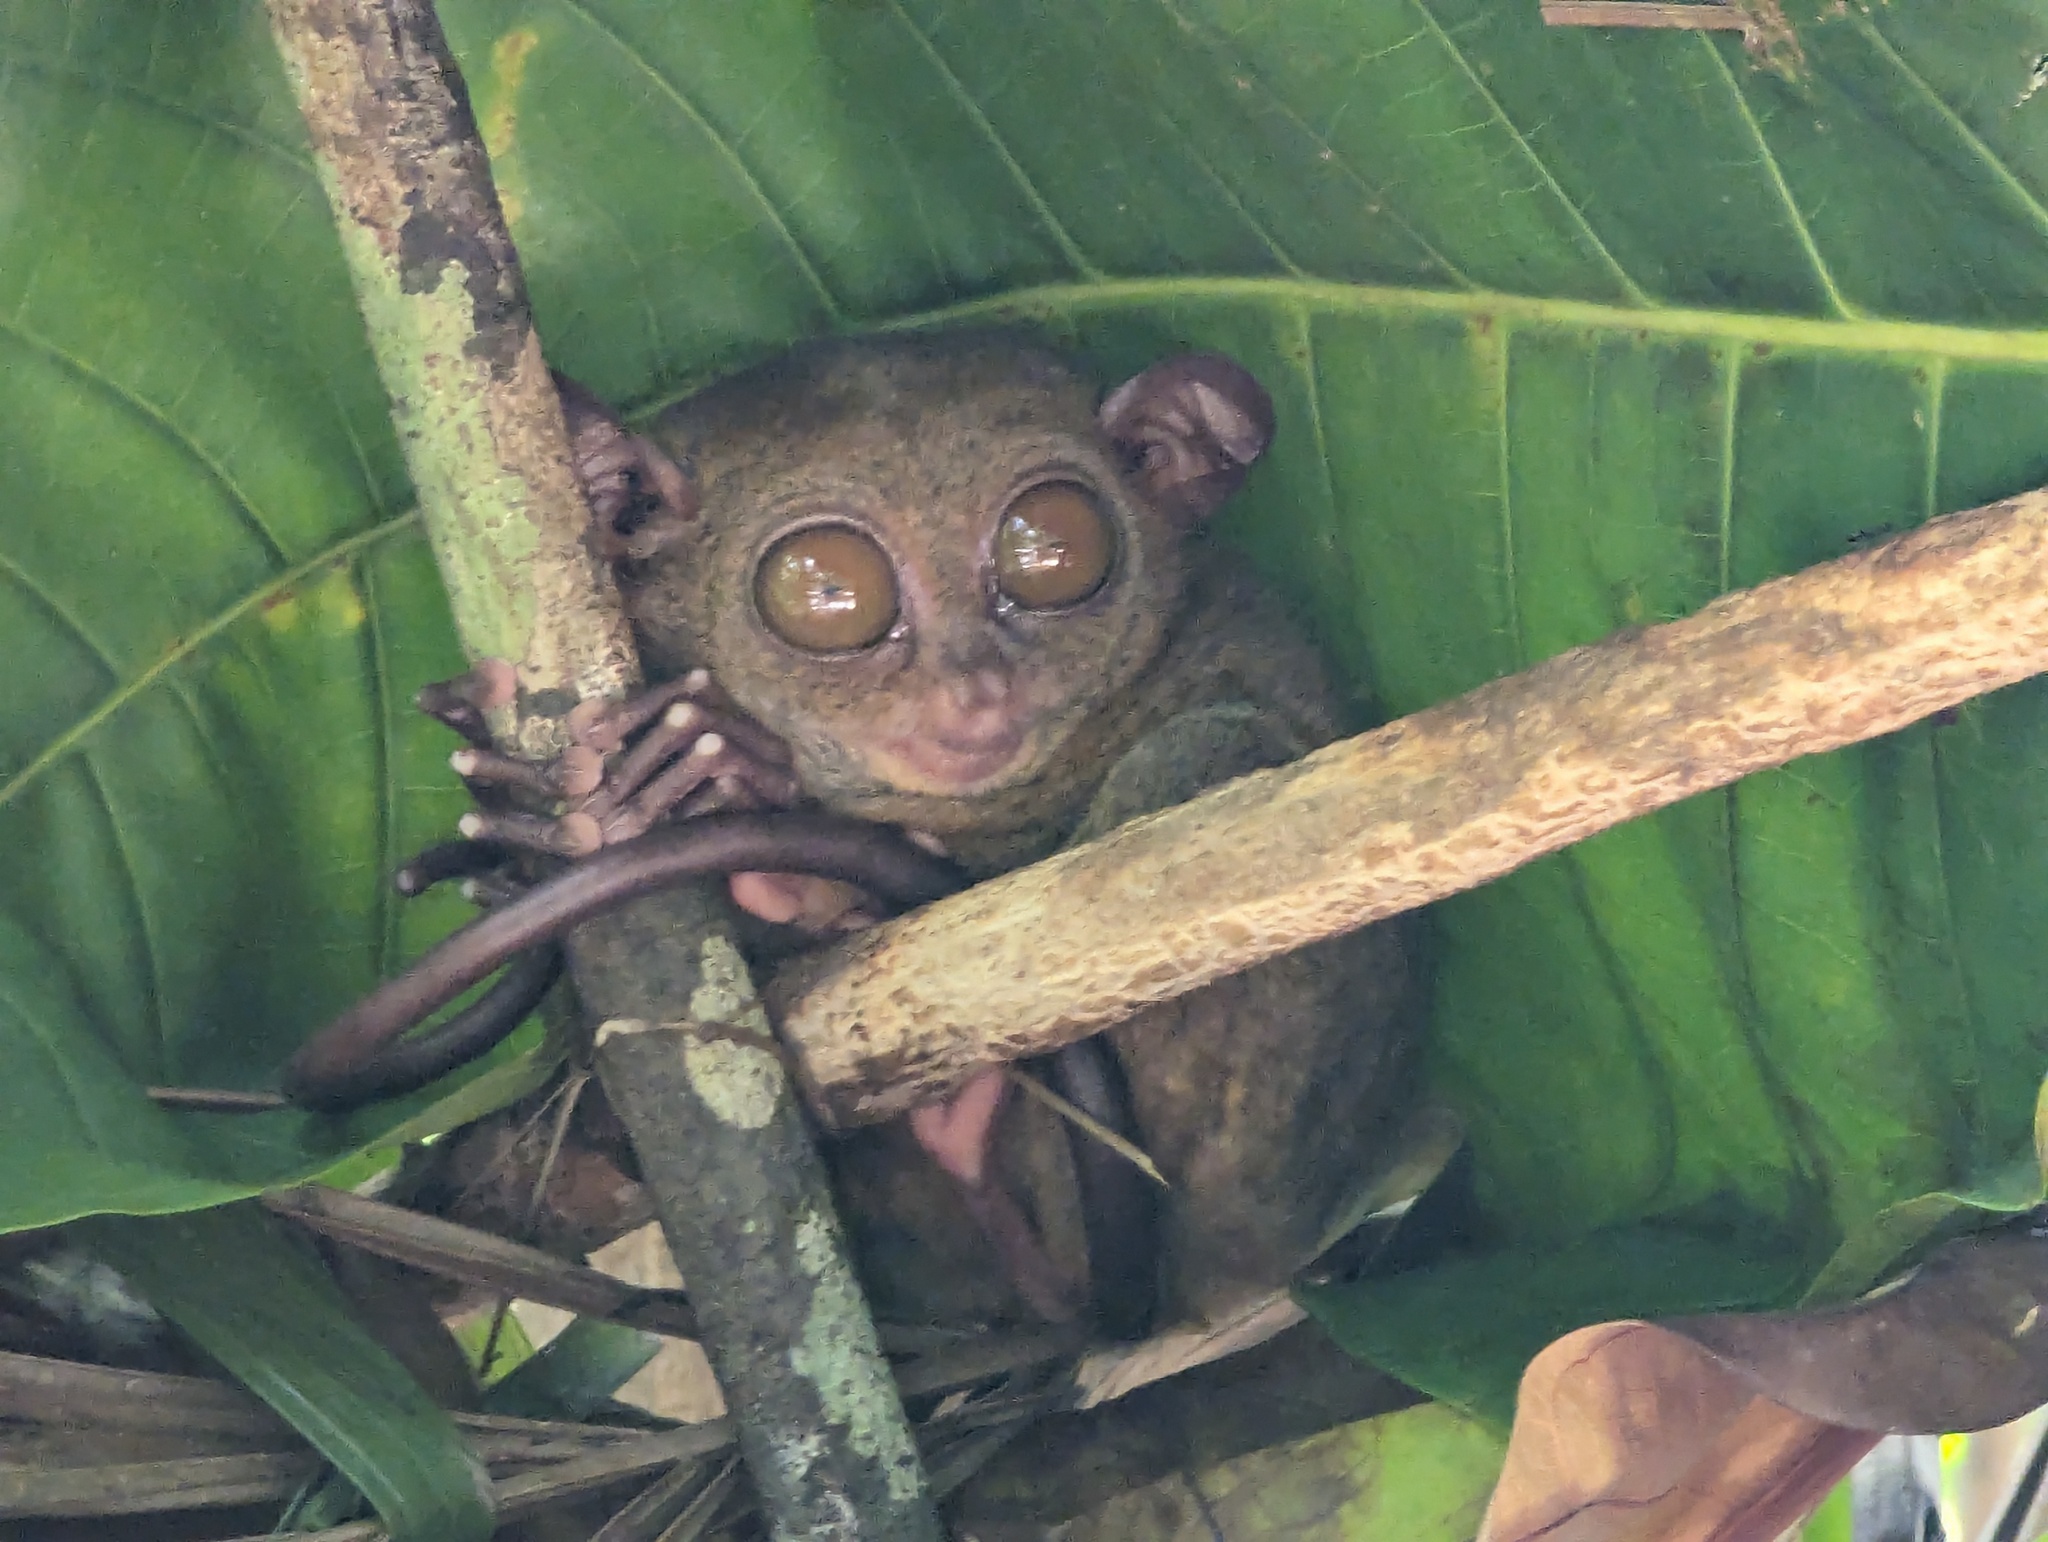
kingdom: Animalia
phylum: Chordata
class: Mammalia
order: Primates
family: Tarsiidae
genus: Carlito
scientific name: Carlito syrichta
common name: Philippine tarsier
